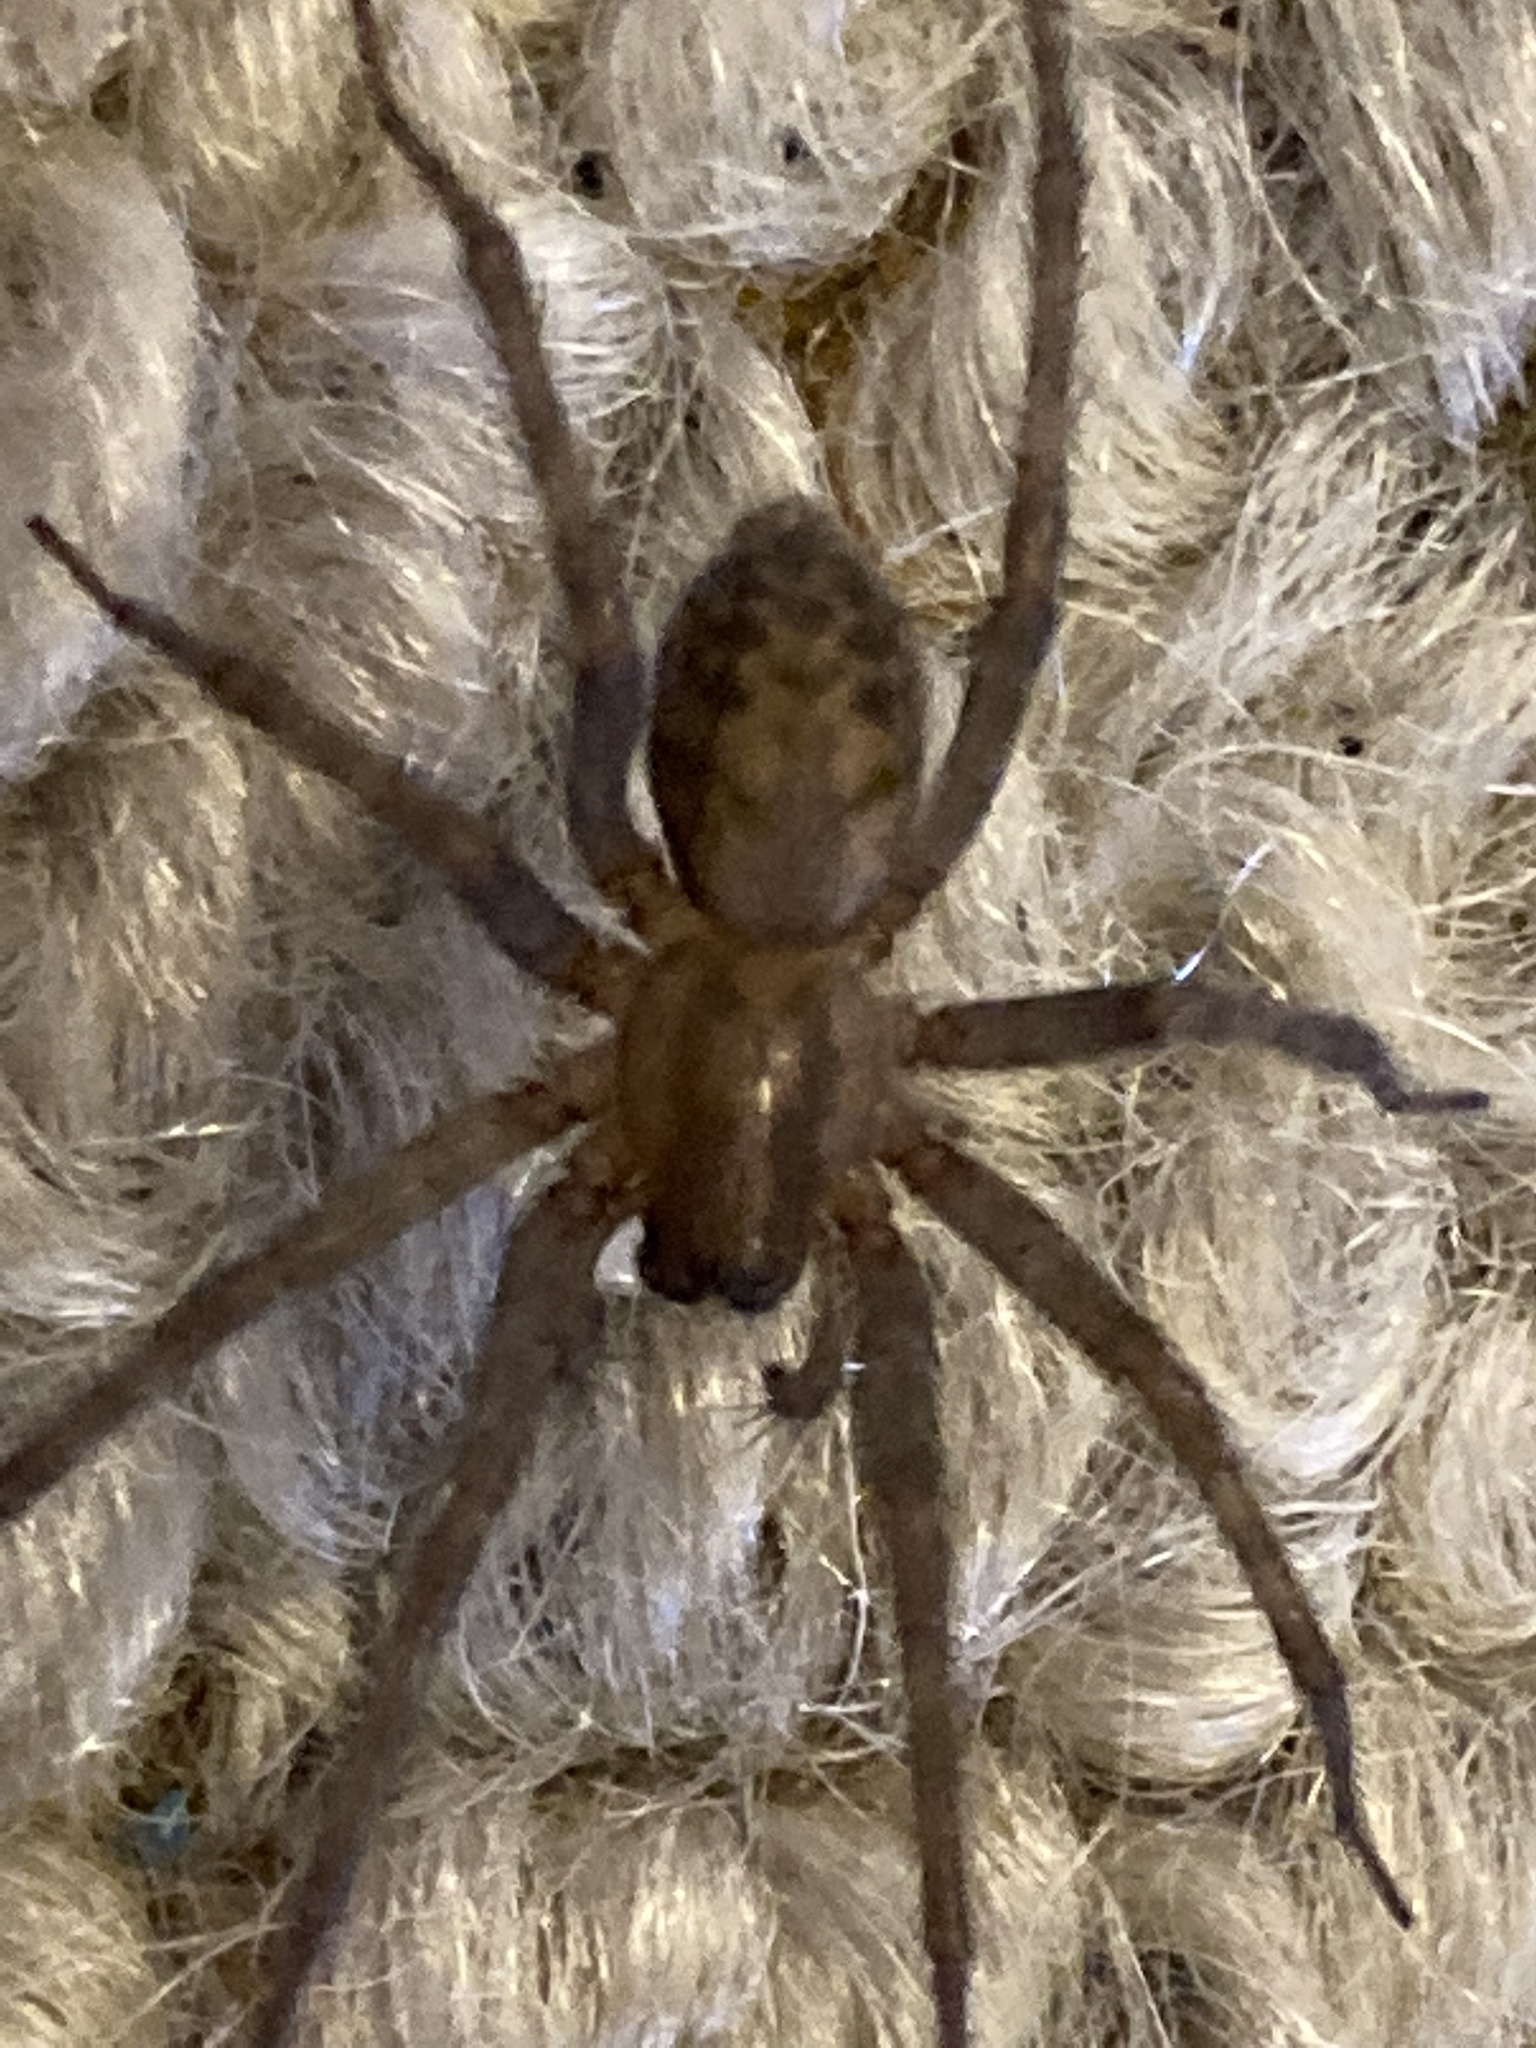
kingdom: Animalia
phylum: Arthropoda
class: Arachnida
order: Araneae
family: Agelenidae
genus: Tegenaria
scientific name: Tegenaria domestica
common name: Barn funnel weaver
